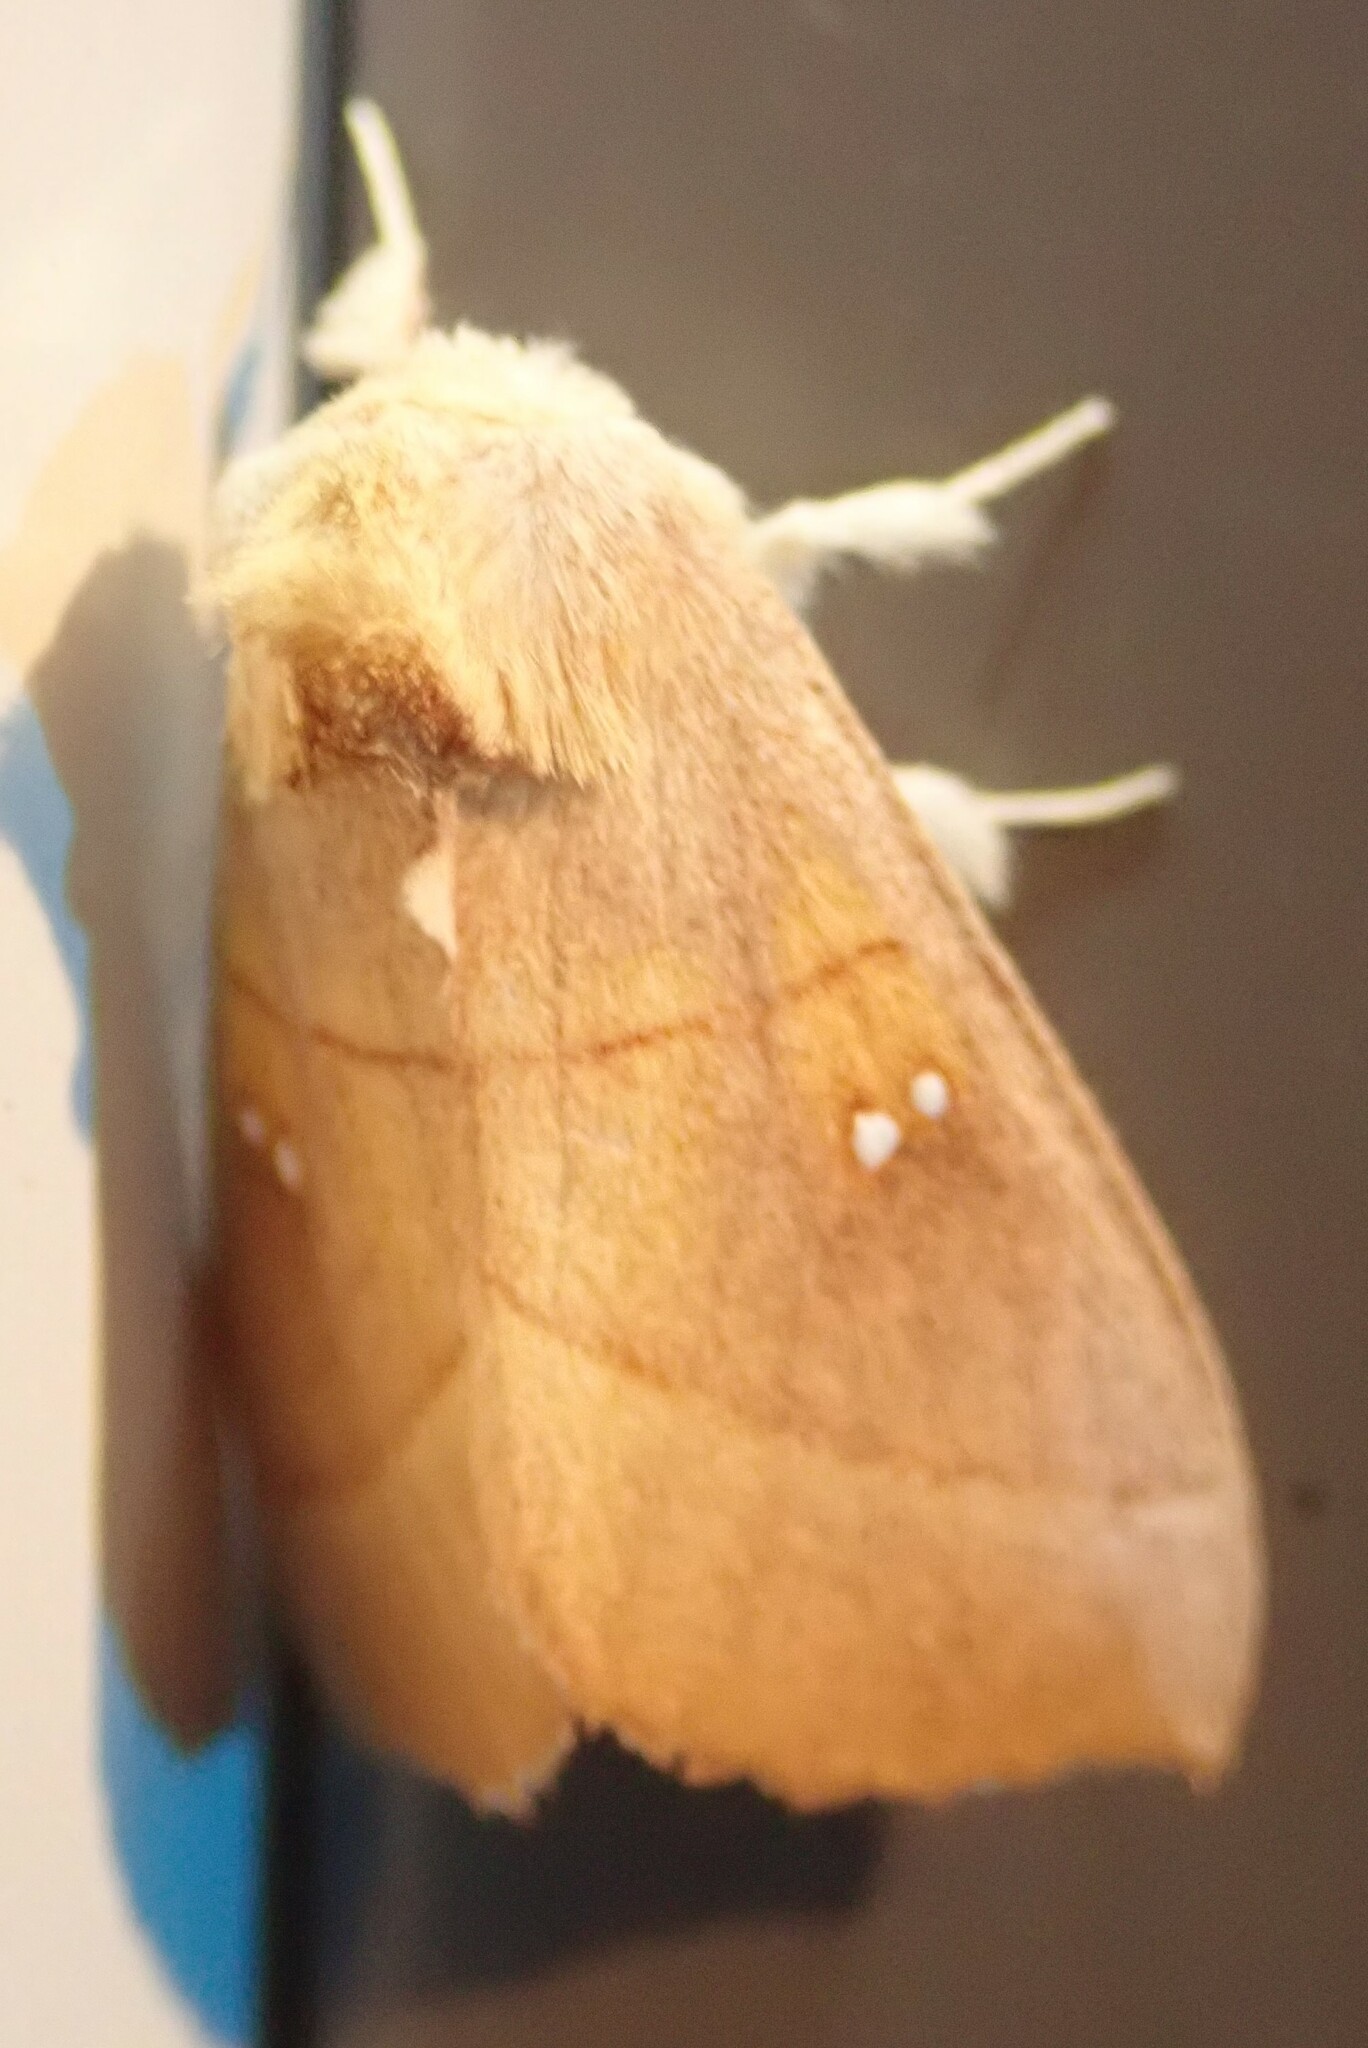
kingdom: Animalia
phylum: Arthropoda
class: Insecta
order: Lepidoptera
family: Notodontidae
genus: Nadata
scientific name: Nadata gibbosa
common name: White-dotted prominent
